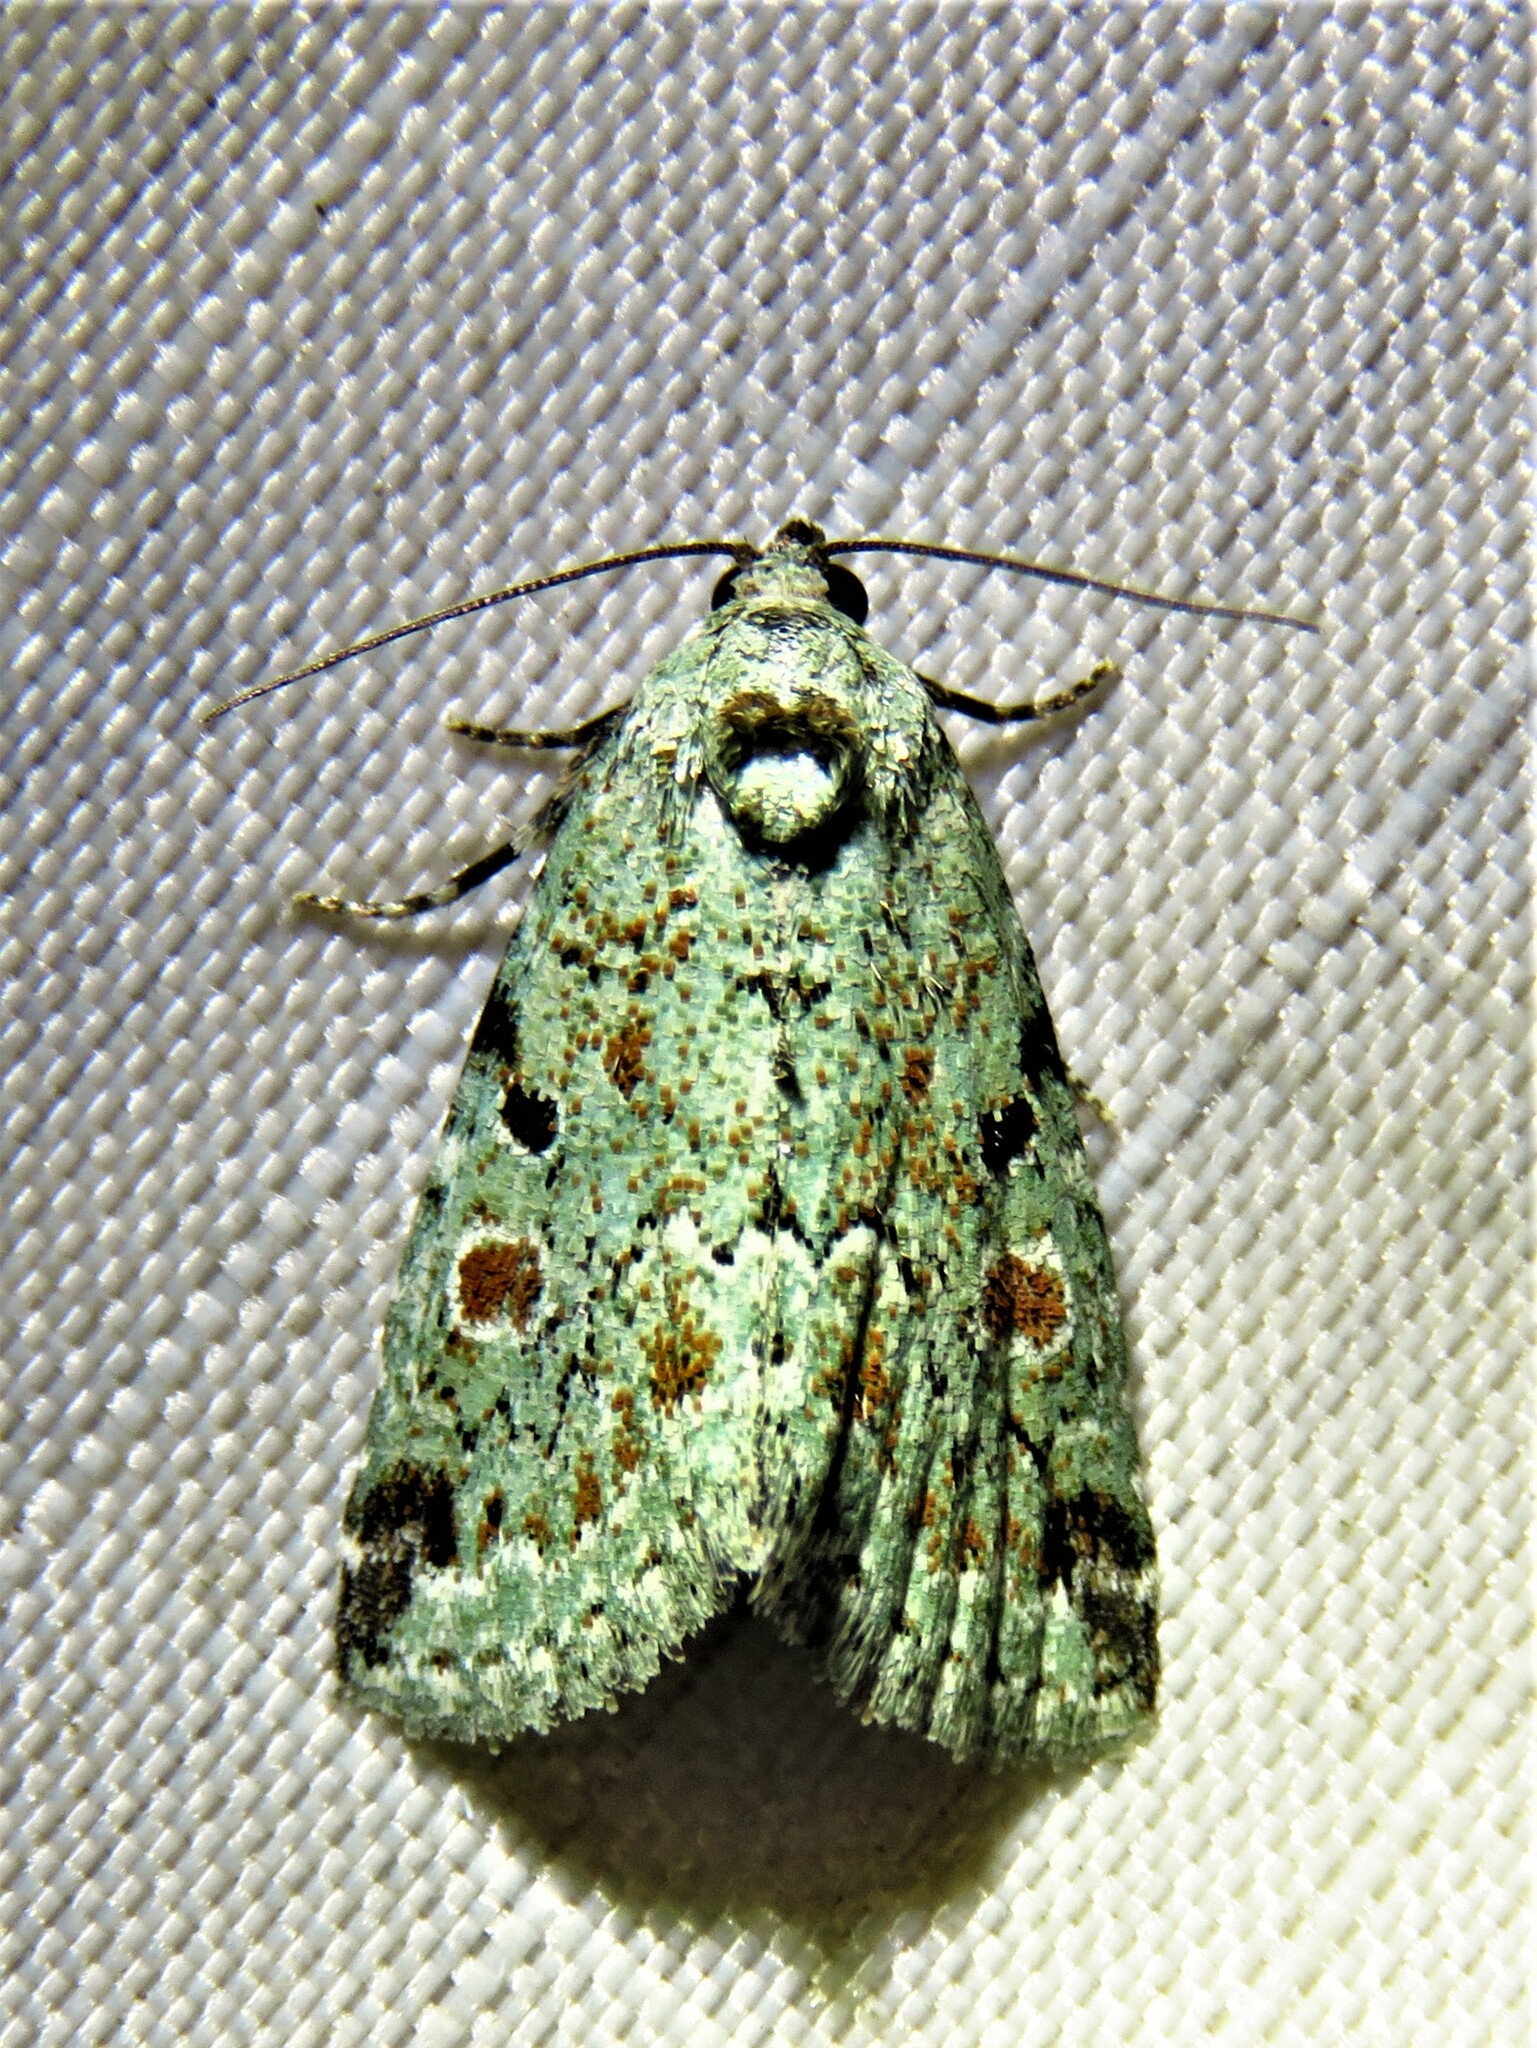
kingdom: Animalia
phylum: Arthropoda
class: Insecta
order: Lepidoptera
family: Noctuidae
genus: Maliattha
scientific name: Maliattha concinnimacula
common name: Red-spotted glyph
